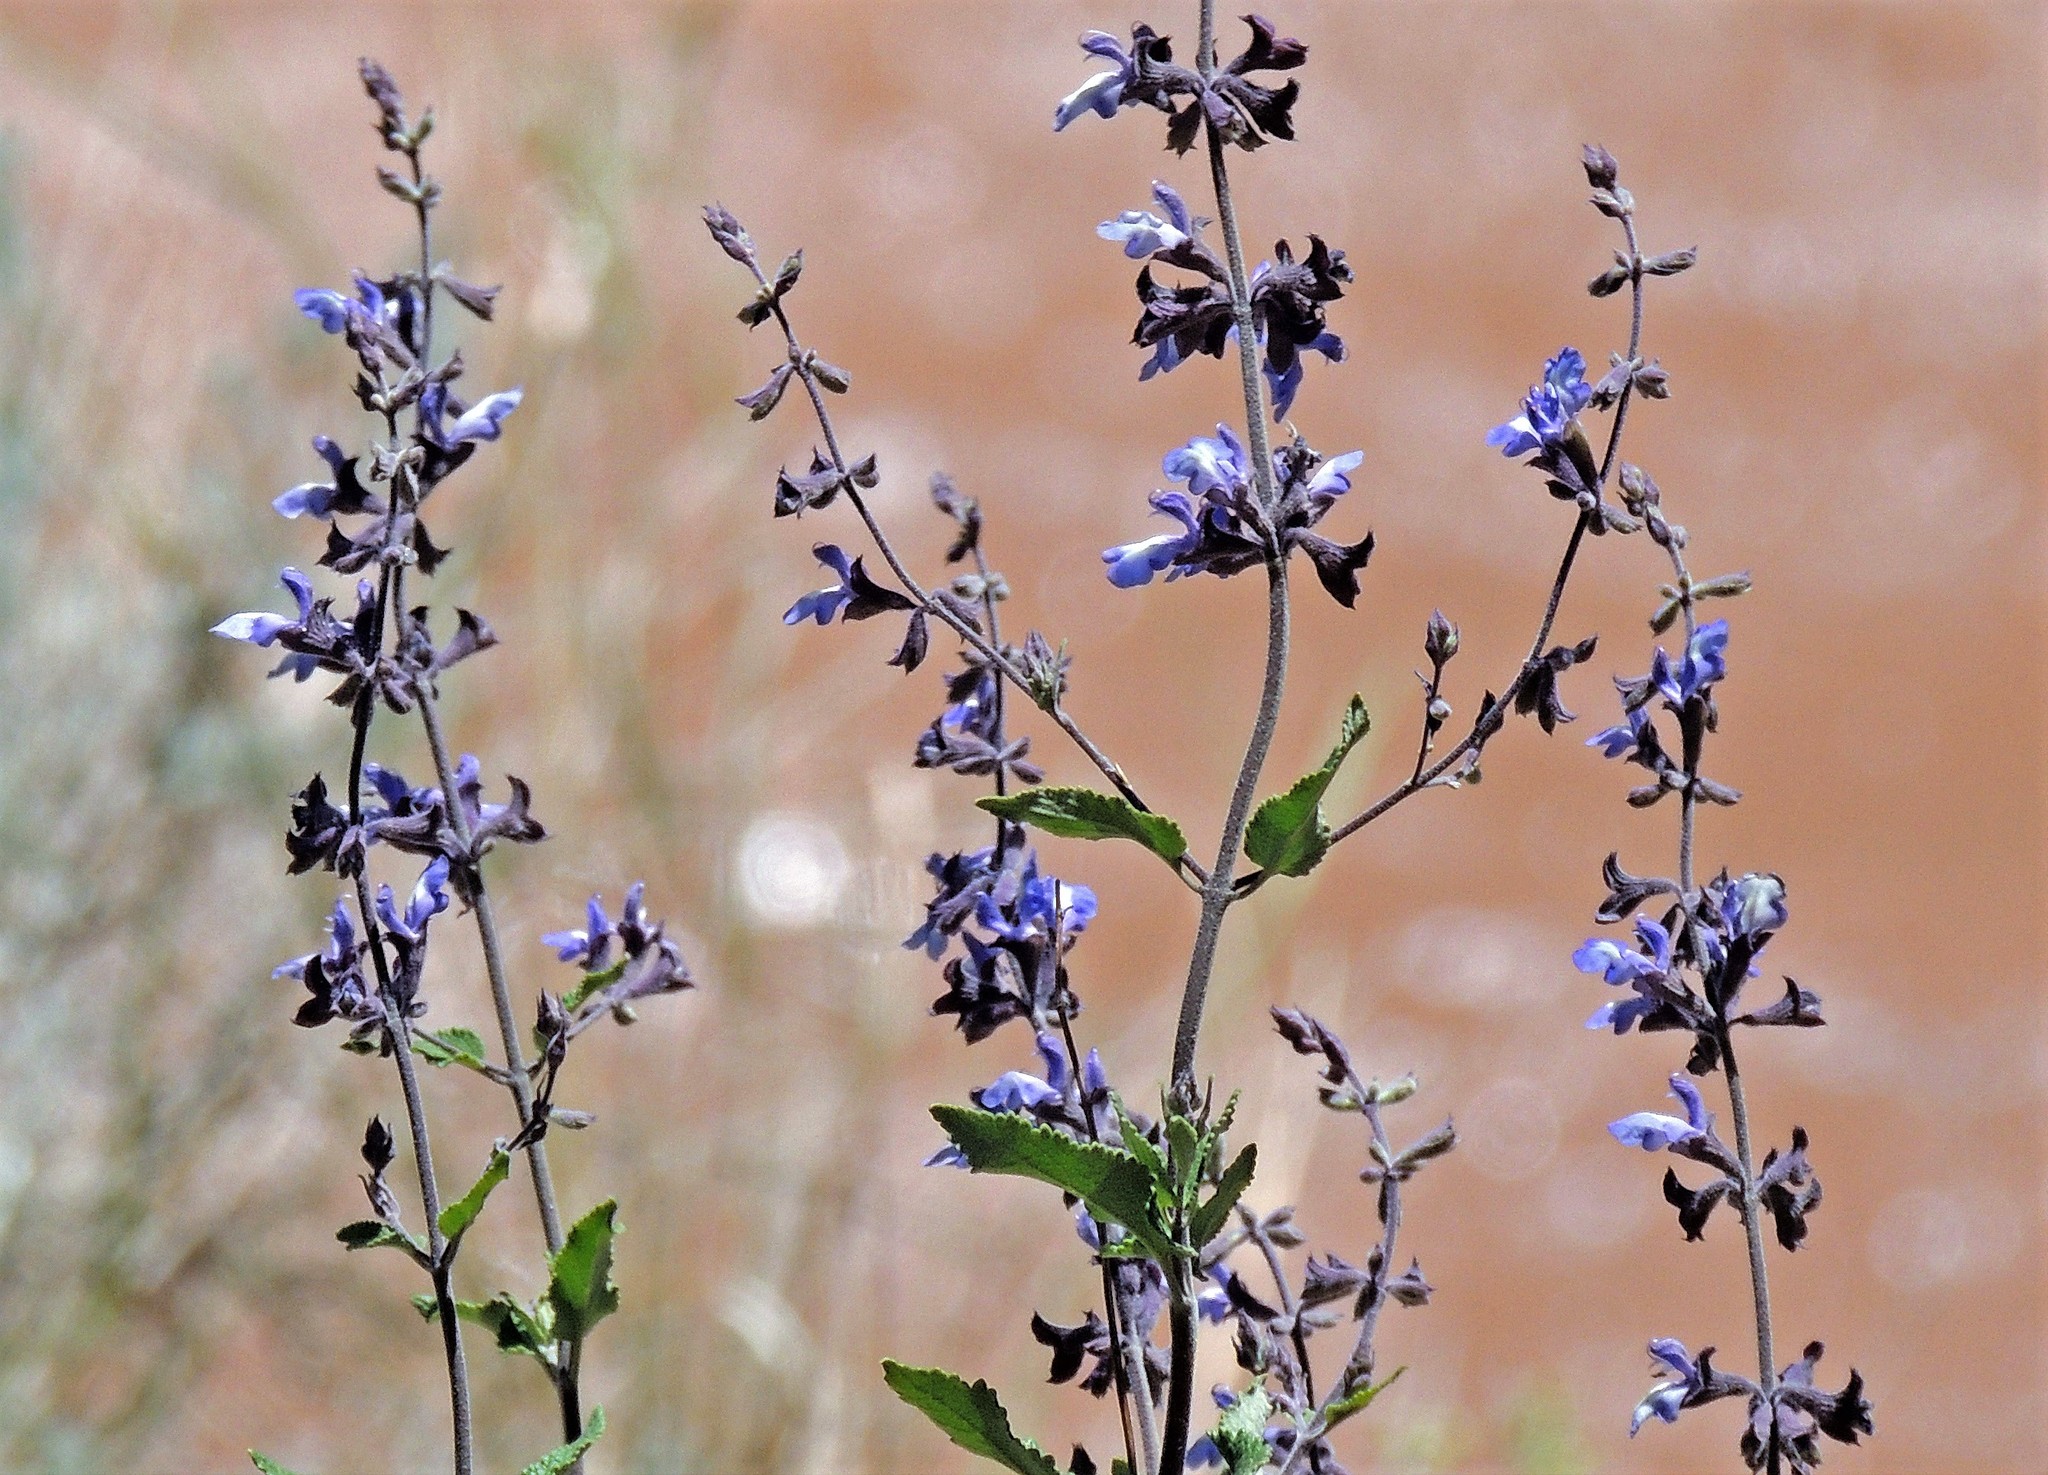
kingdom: Plantae
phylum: Tracheophyta
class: Magnoliopsida
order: Lamiales
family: Lamiaceae
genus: Salvia
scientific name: Salvia cuspidata
